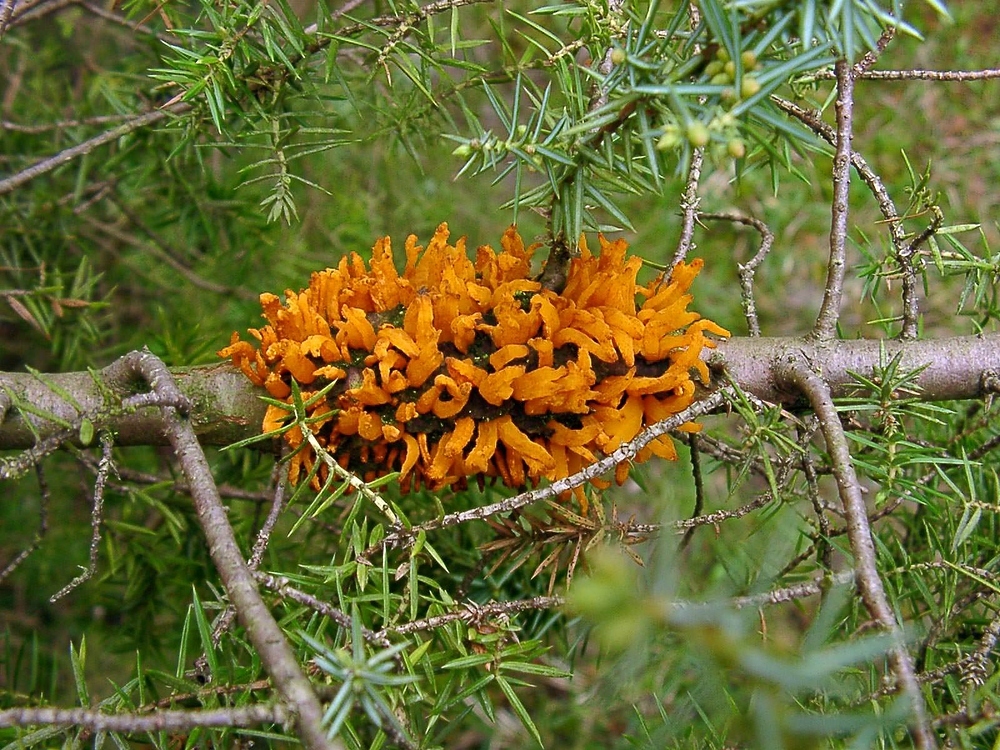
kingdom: Fungi
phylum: Basidiomycota
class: Pucciniomycetes
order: Pucciniales
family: Gymnosporangiaceae
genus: Gymnosporangium
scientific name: Gymnosporangium clavariiforme
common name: Tongues of fire
